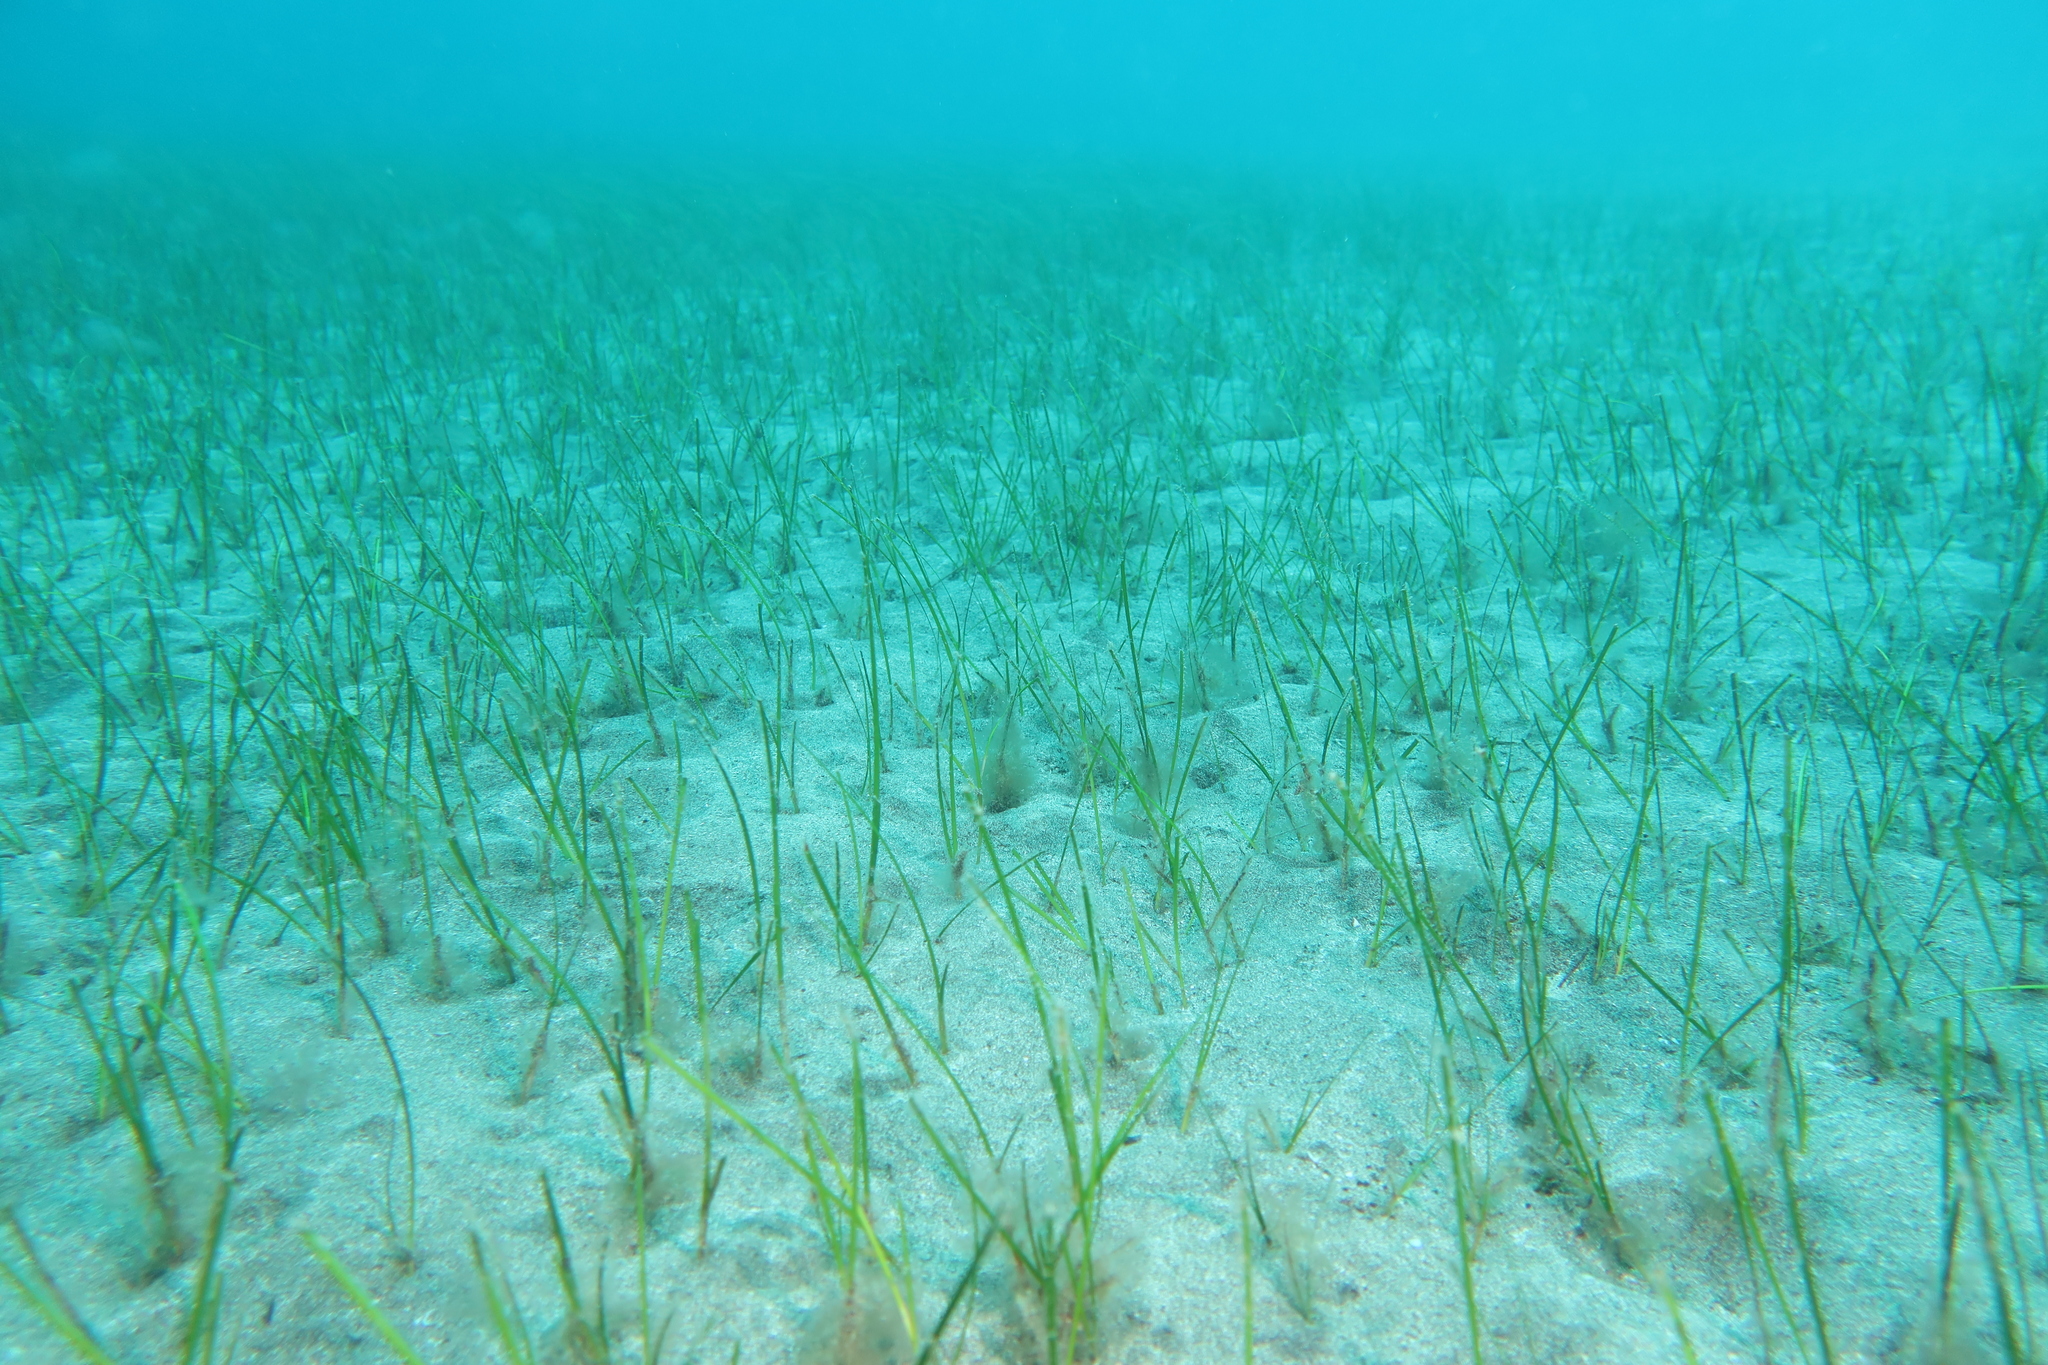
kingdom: Plantae
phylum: Tracheophyta
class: Liliopsida
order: Alismatales
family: Cymodoceaceae
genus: Cymodocea
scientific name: Cymodocea nodosa
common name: Slender seagrass
